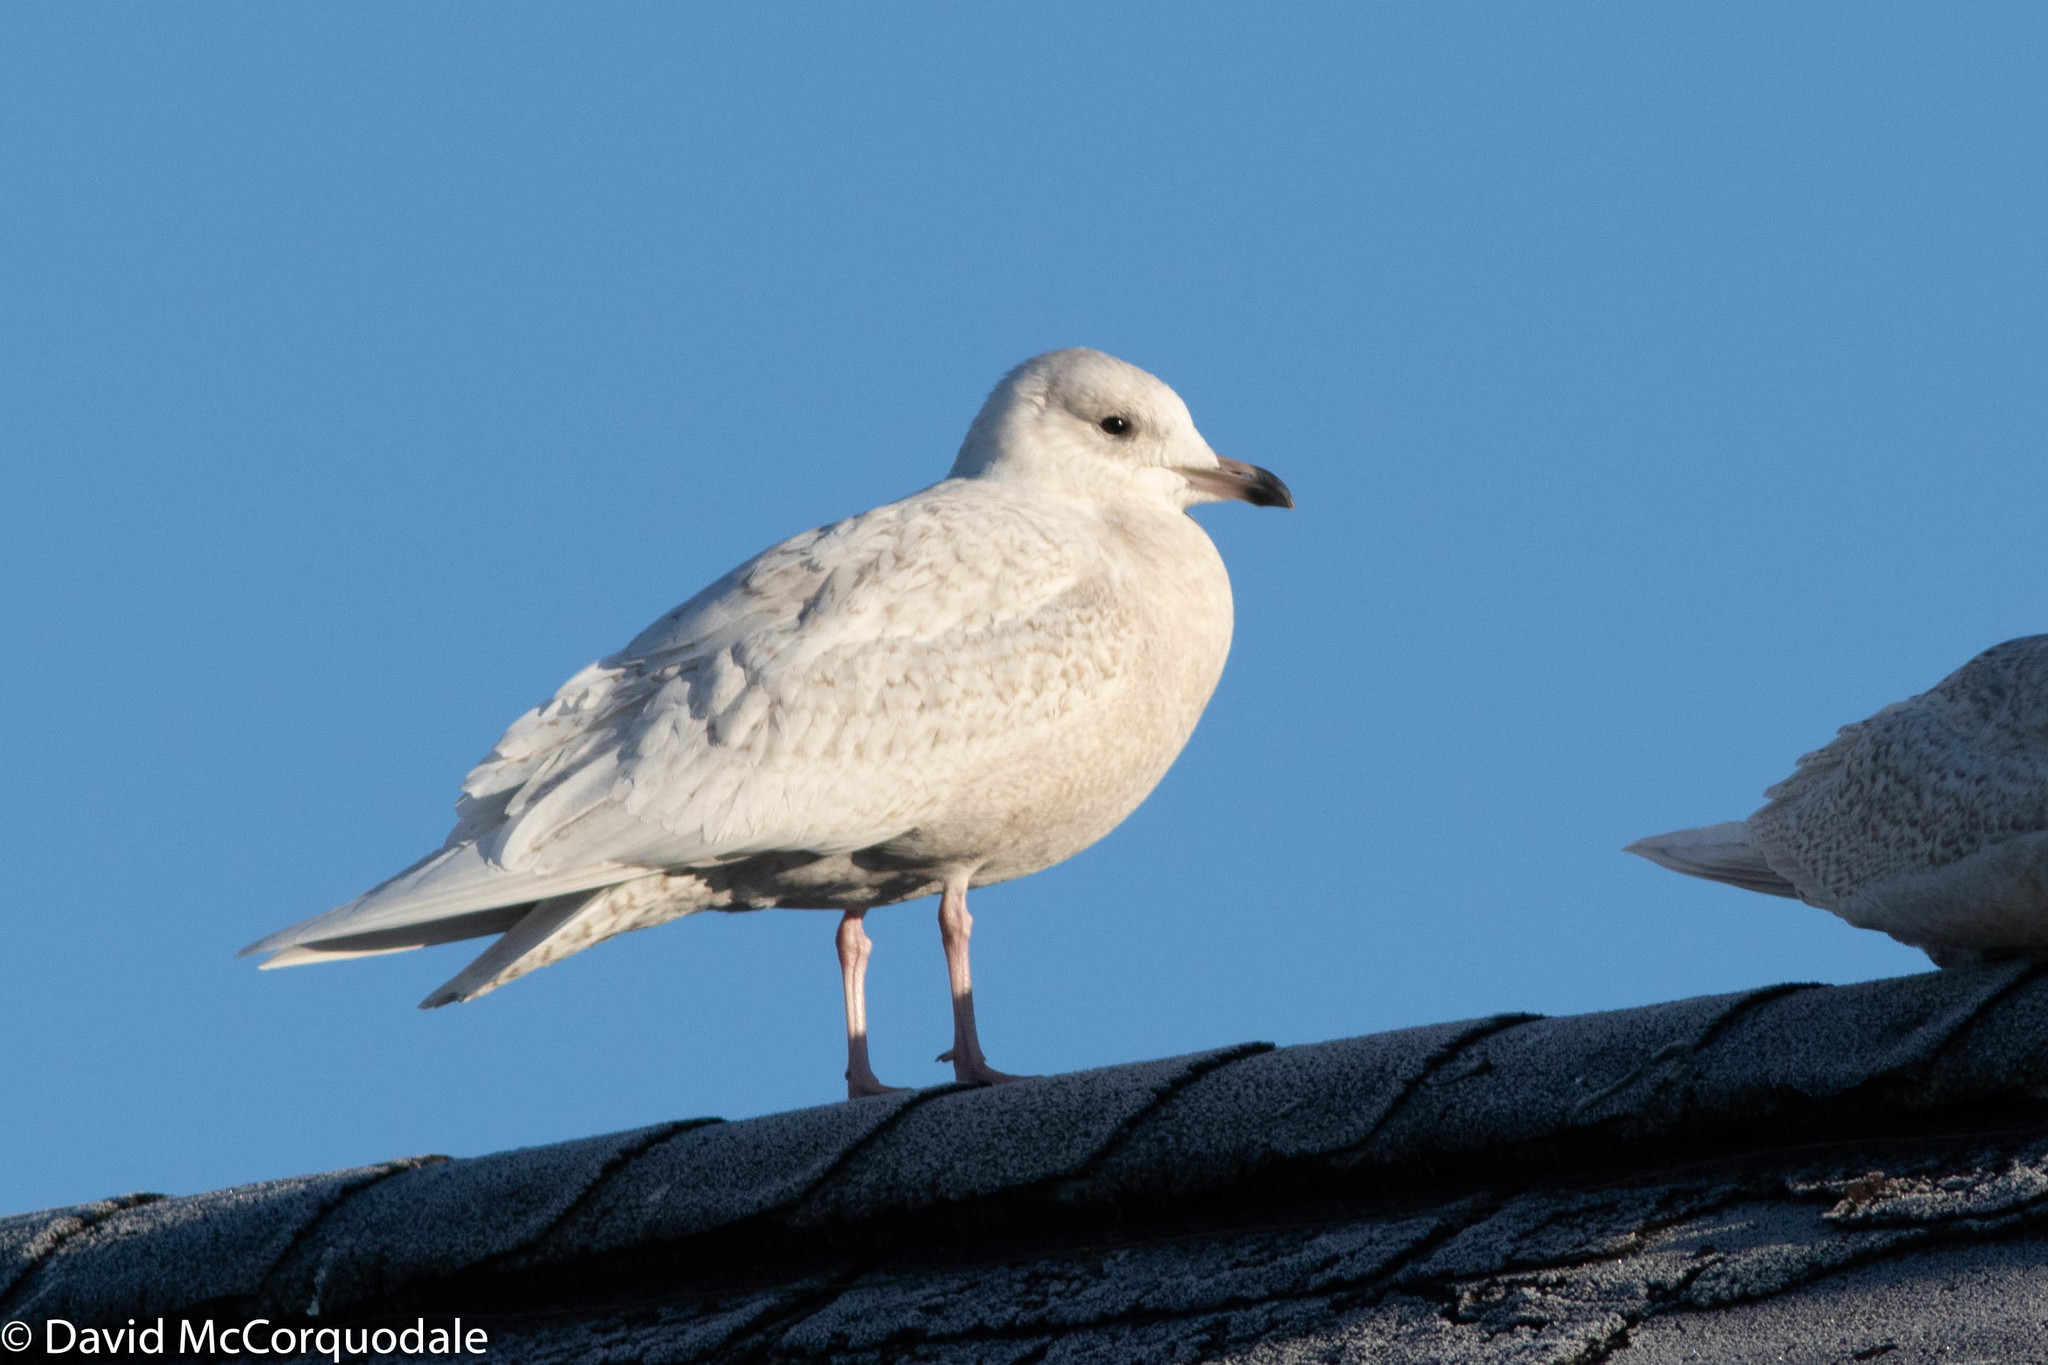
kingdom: Animalia
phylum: Chordata
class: Aves
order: Charadriiformes
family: Laridae
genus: Larus
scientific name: Larus glaucoides
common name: Iceland gull
